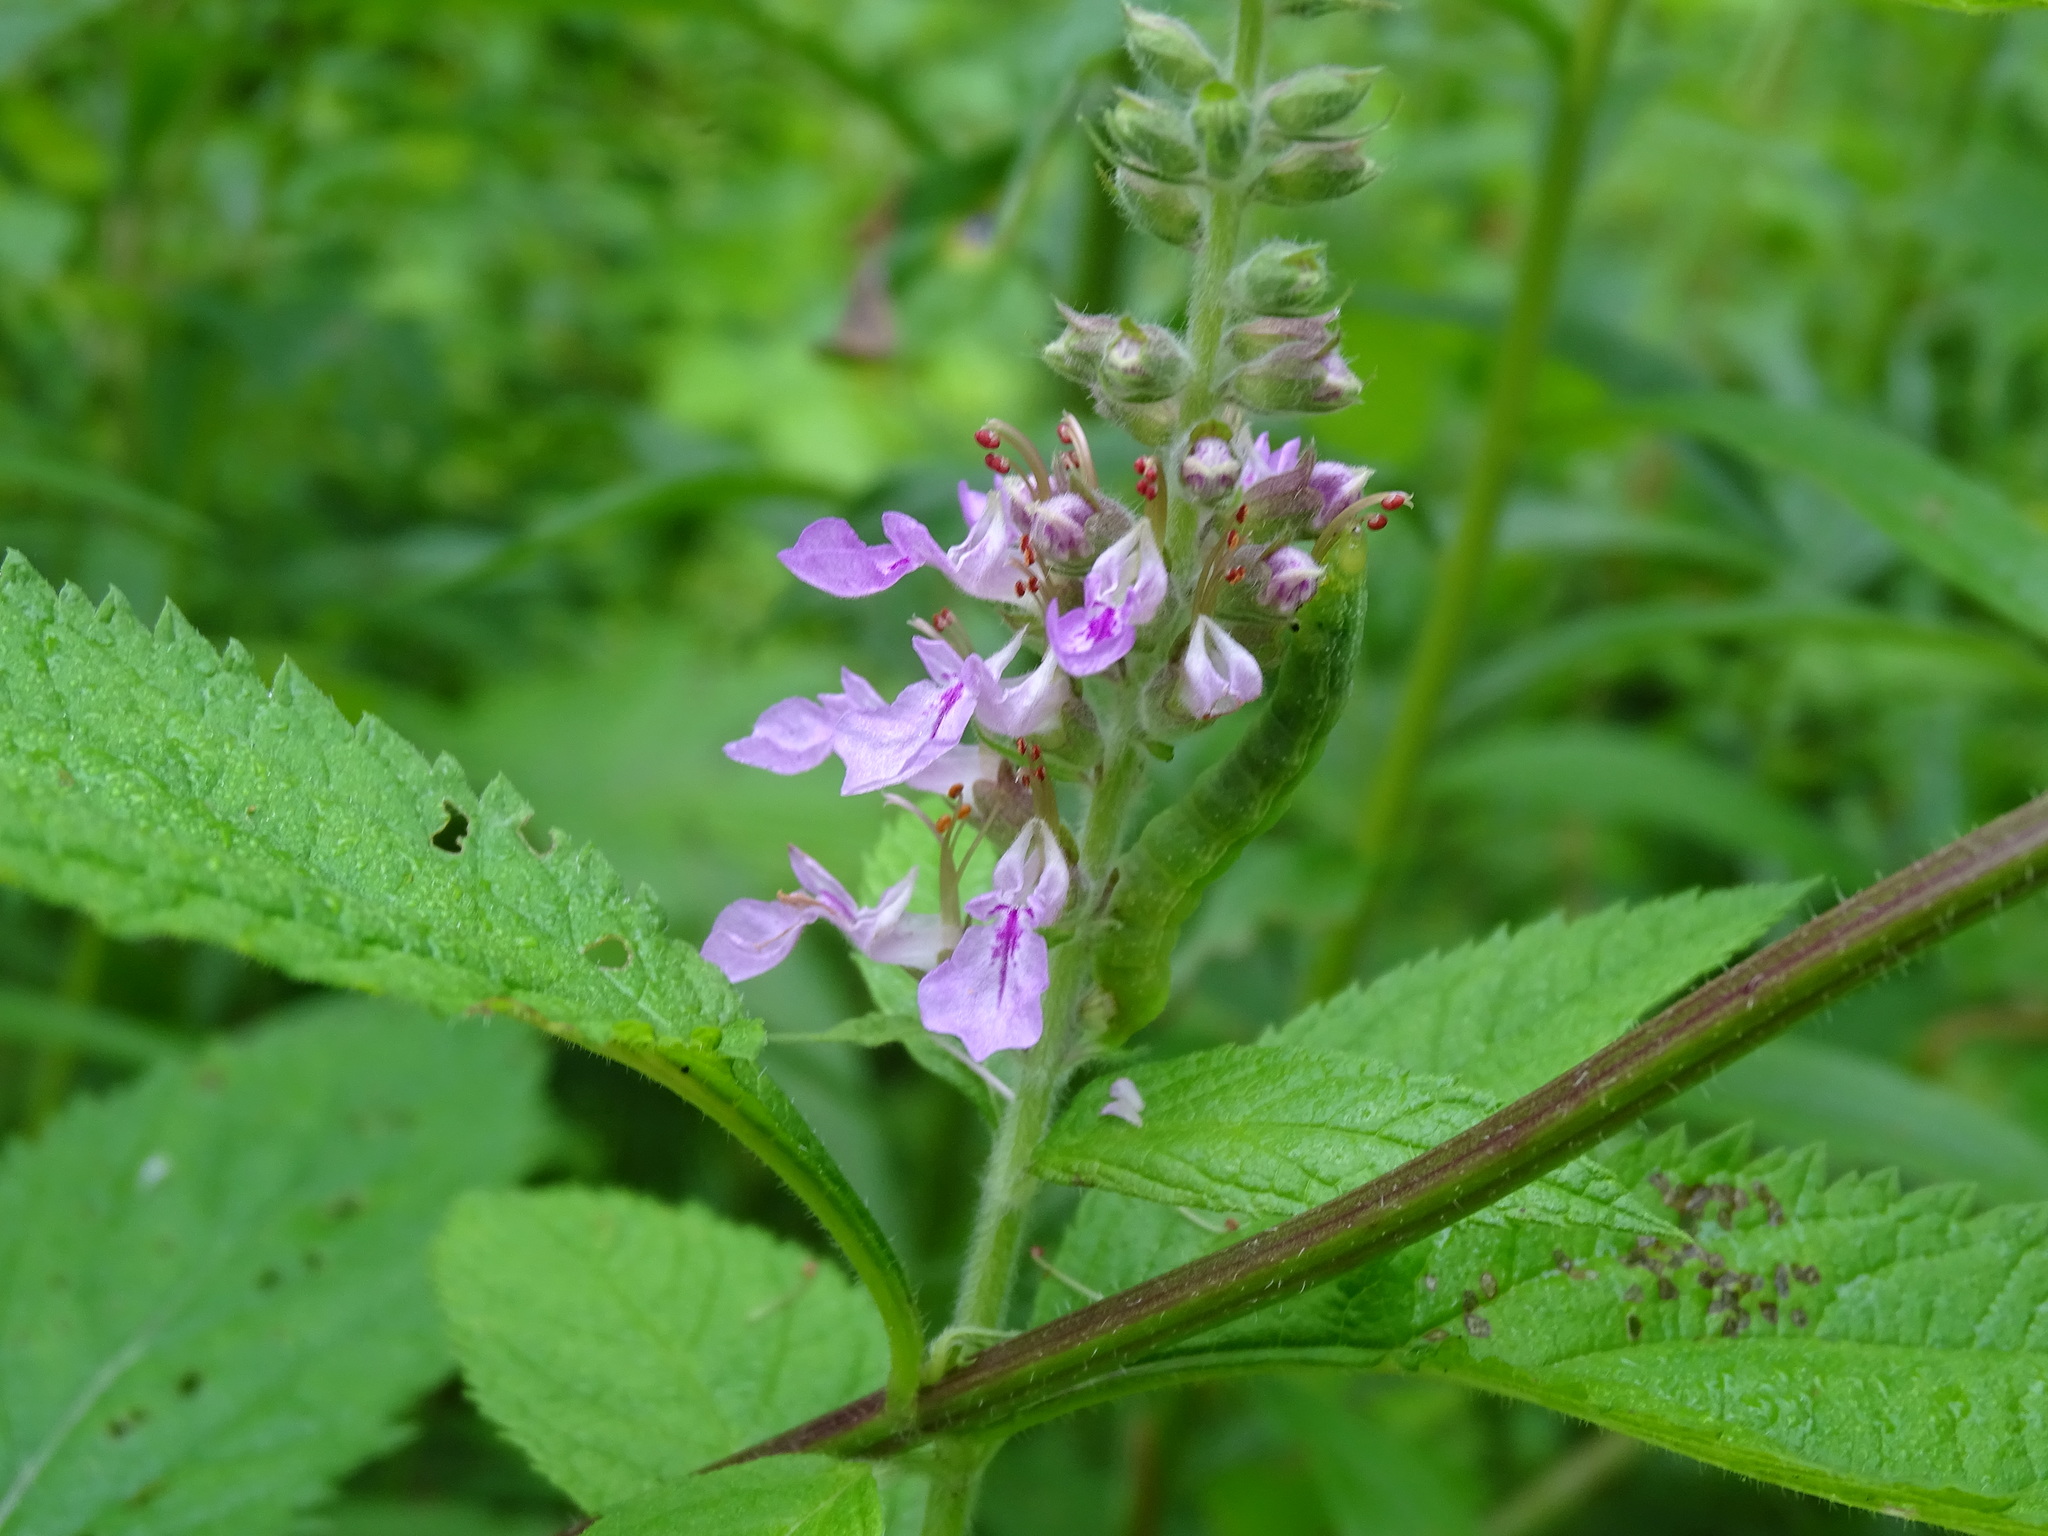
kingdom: Plantae
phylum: Tracheophyta
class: Magnoliopsida
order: Lamiales
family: Lamiaceae
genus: Teucrium
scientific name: Teucrium canadense
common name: American germander
